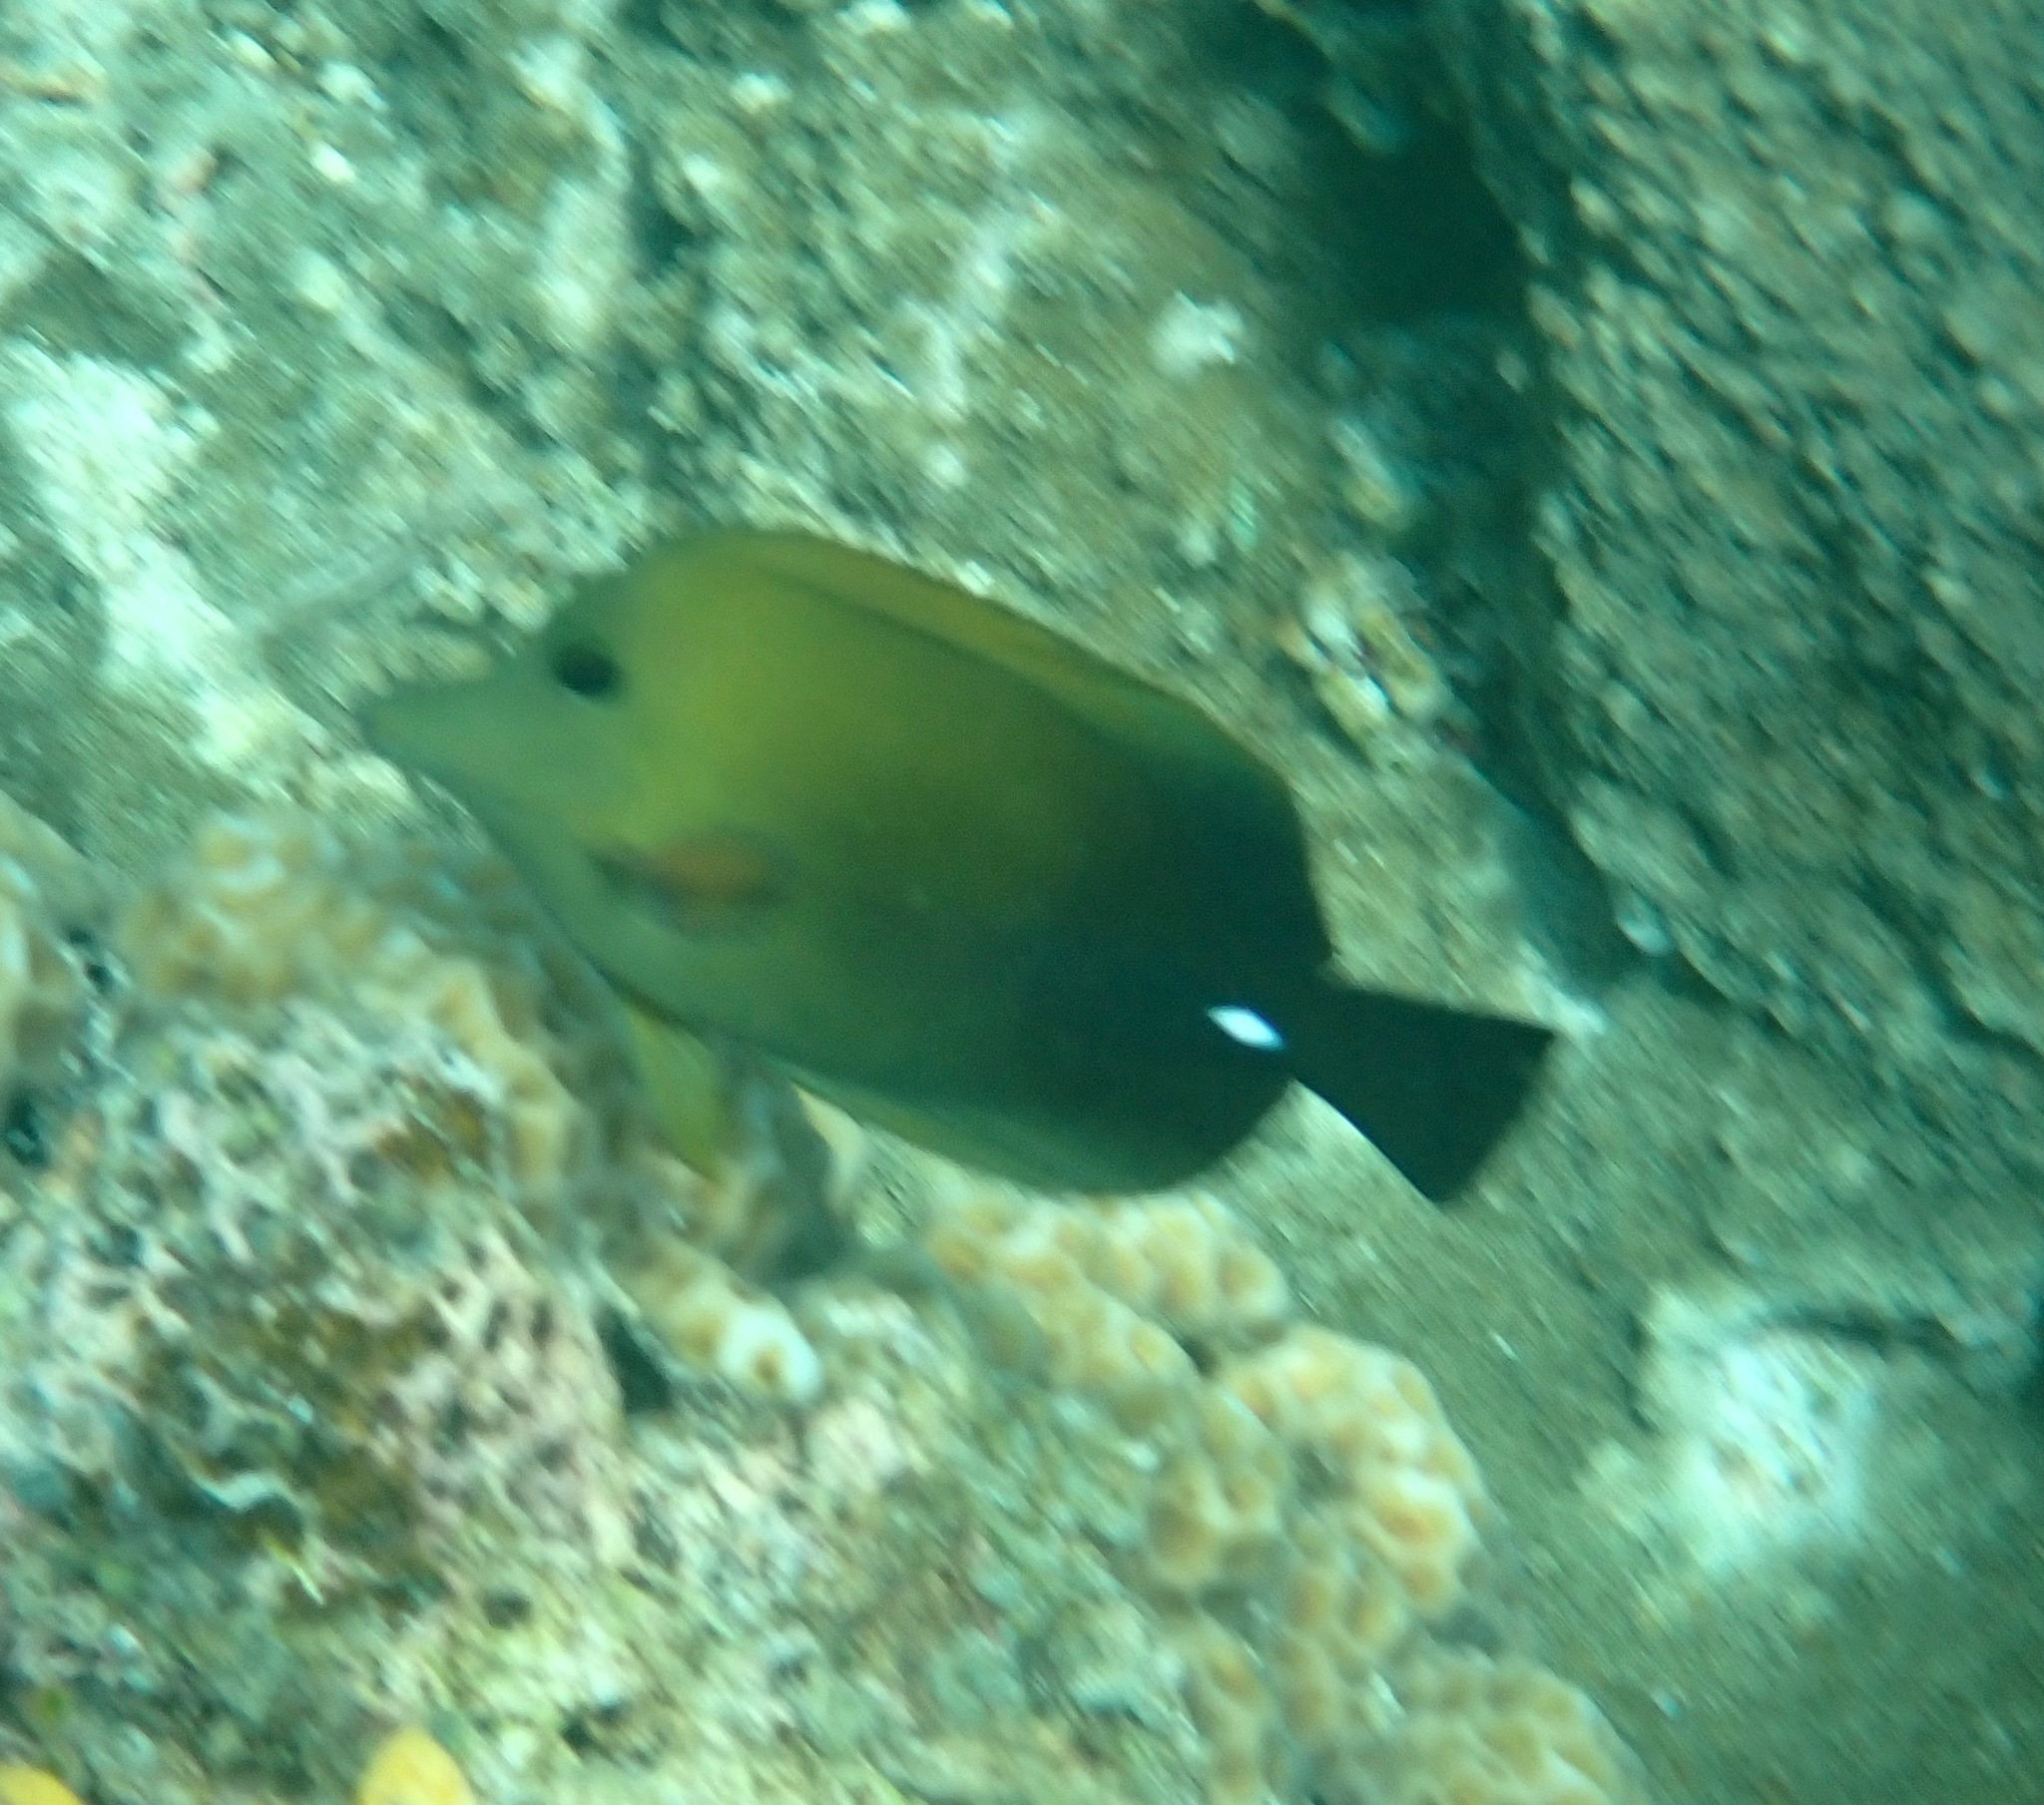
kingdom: Animalia
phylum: Chordata
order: Perciformes
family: Acanthuridae
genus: Zebrasoma
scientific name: Zebrasoma scopas
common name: Twotone tang
